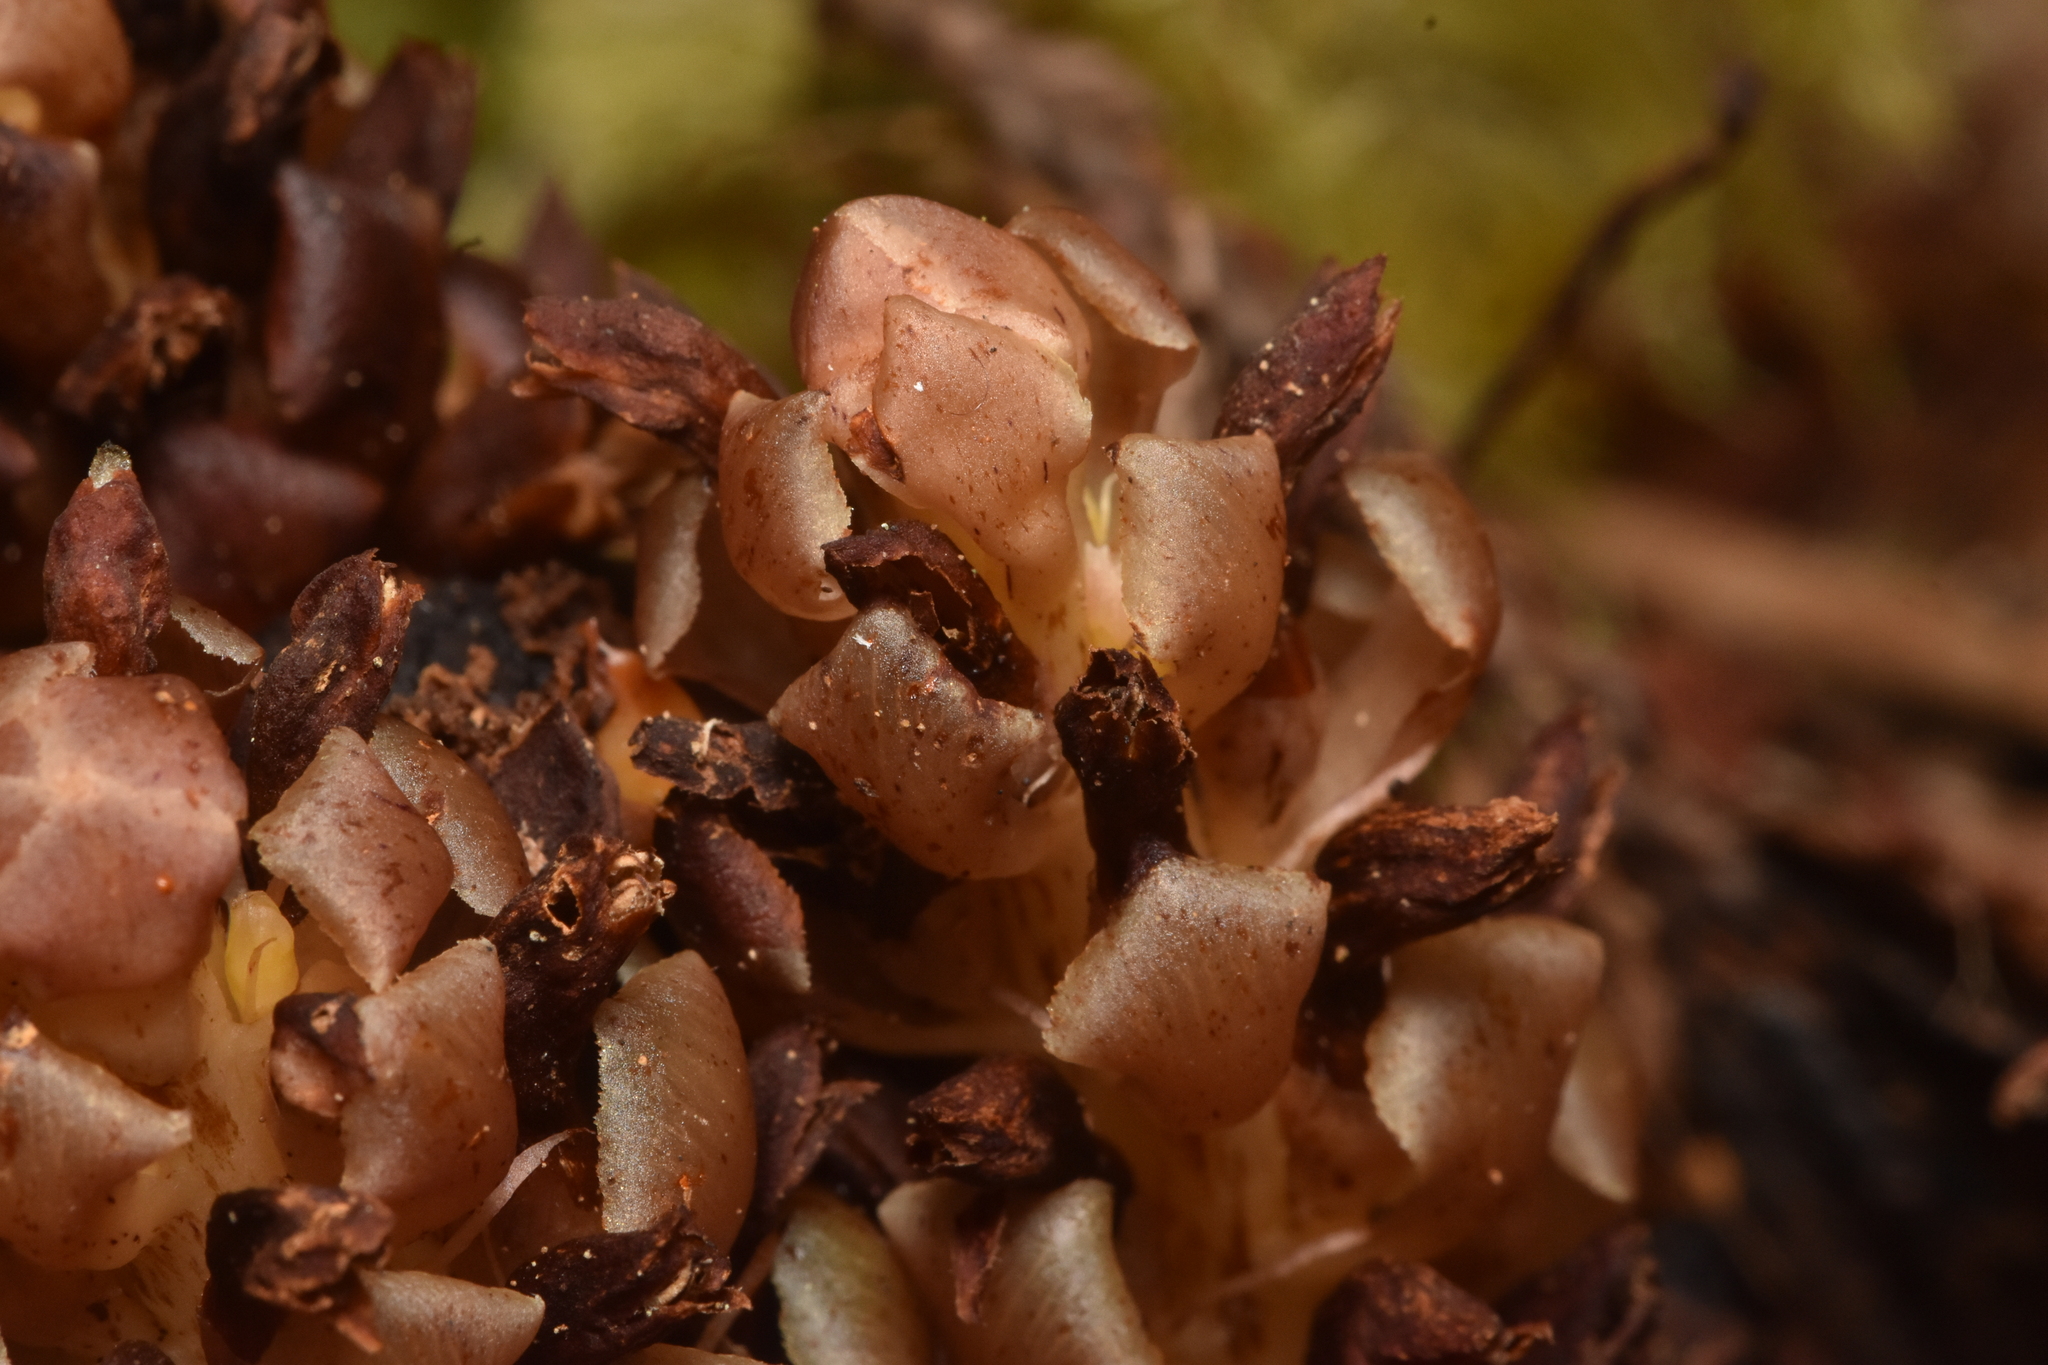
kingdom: Plantae
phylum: Tracheophyta
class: Magnoliopsida
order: Lamiales
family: Orobanchaceae
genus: Kopsiopsis
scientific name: Kopsiopsis hookeri
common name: Hooker's groundcone
